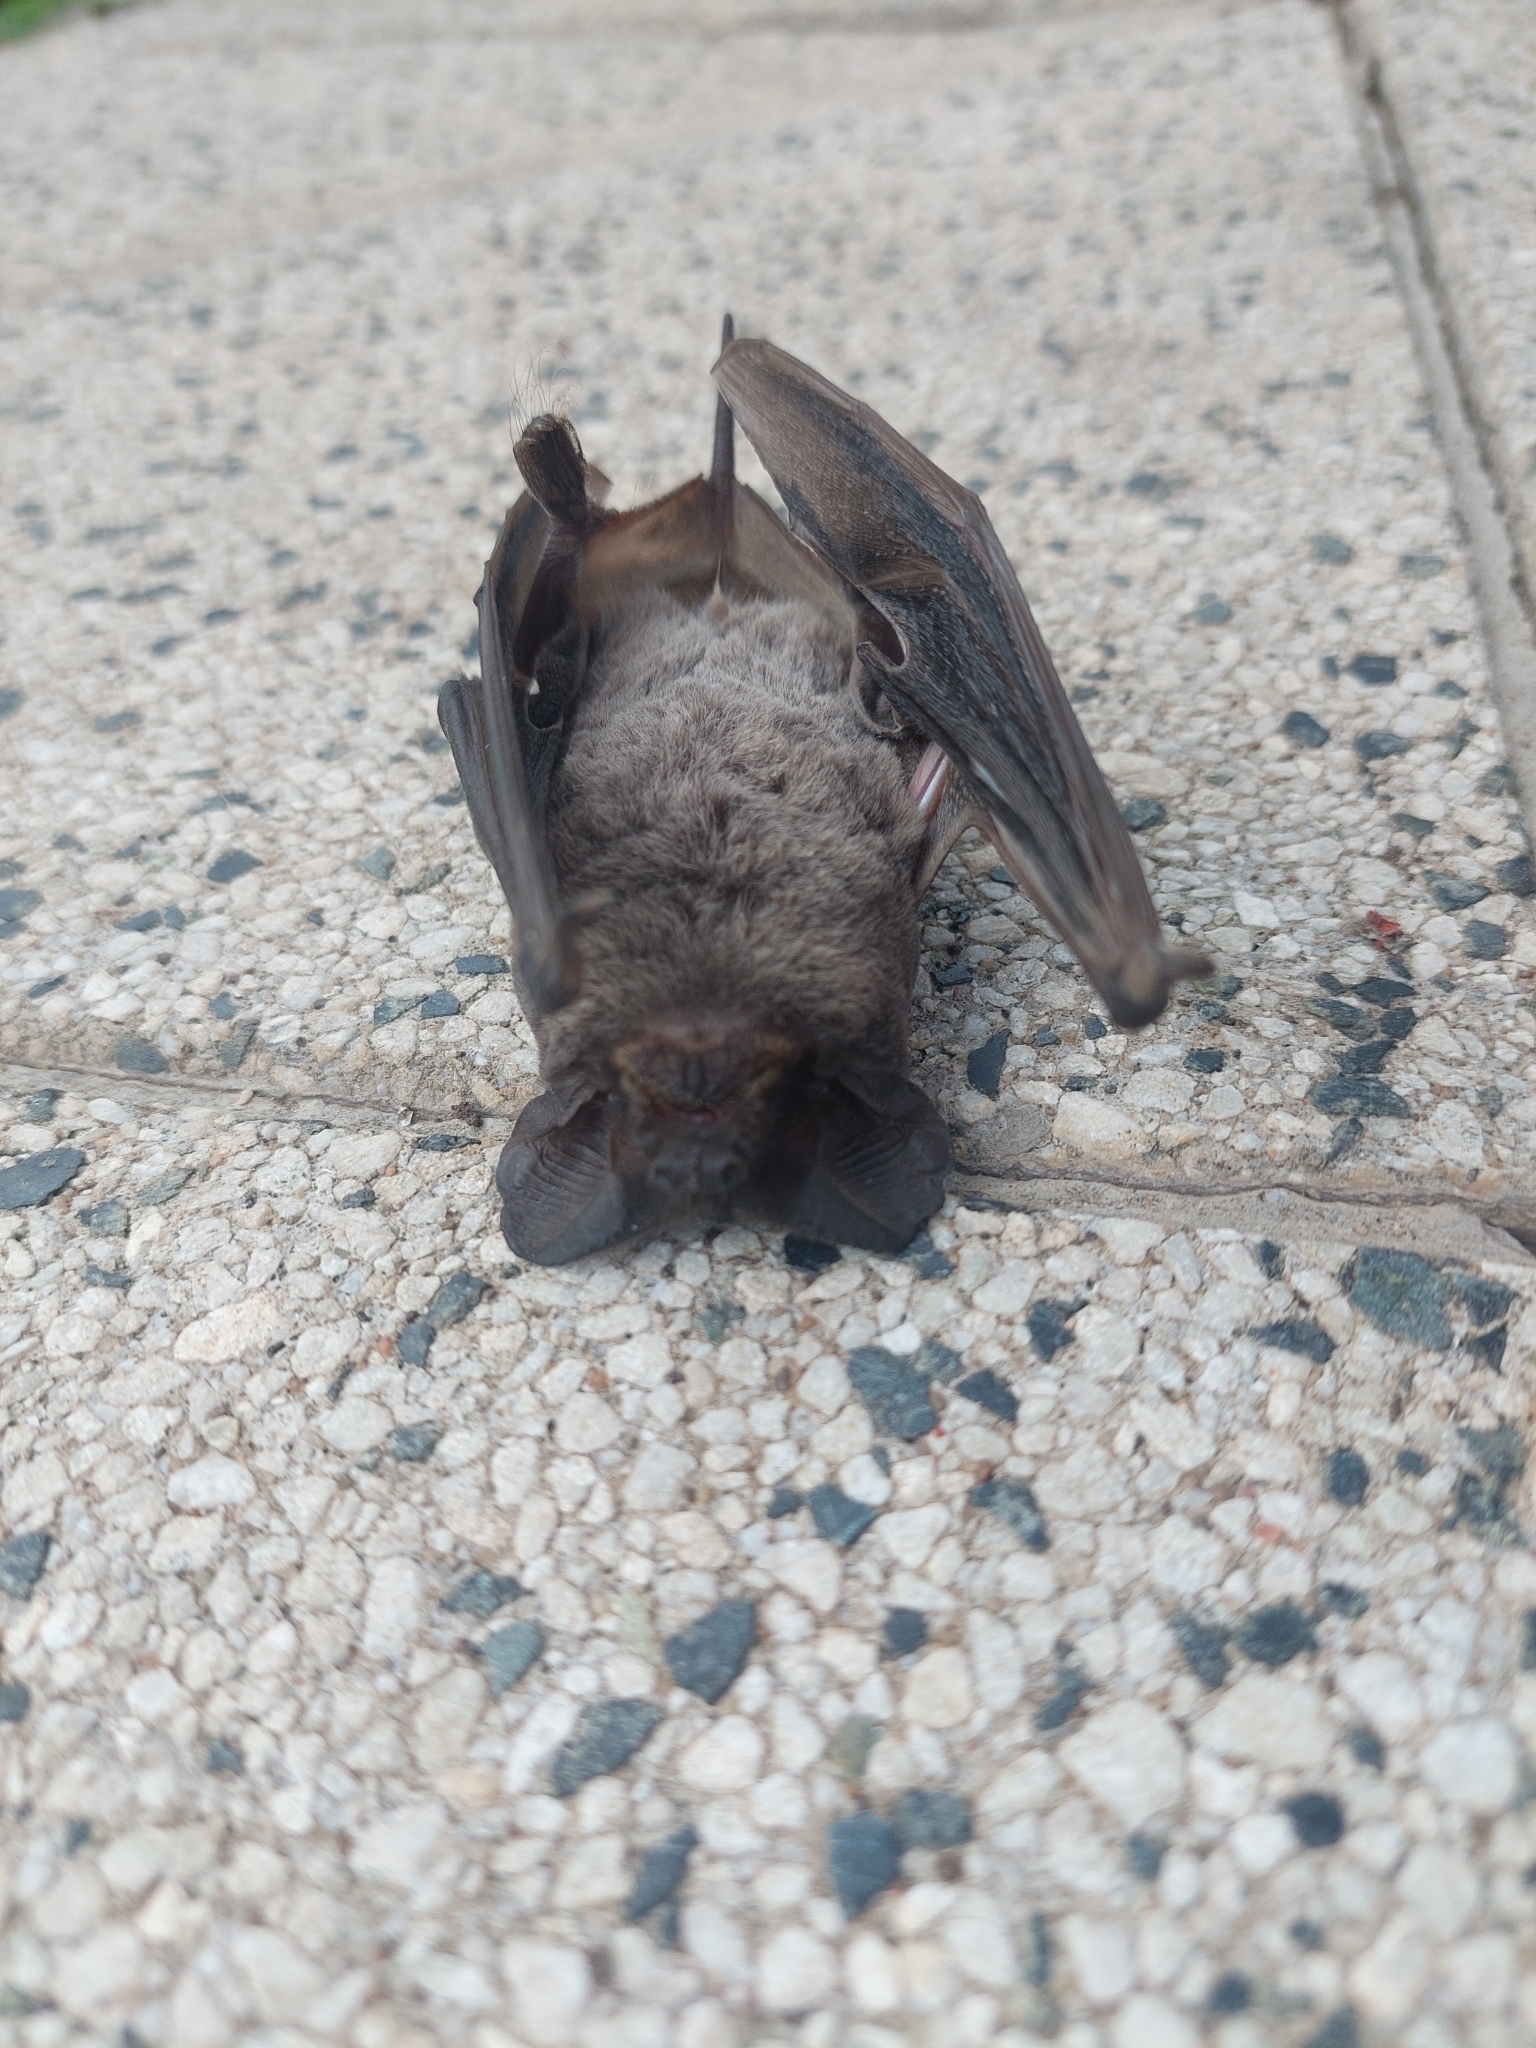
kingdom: Animalia
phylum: Chordata
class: Mammalia
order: Chiroptera
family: Molossidae
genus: Tadarida
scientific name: Tadarida brasiliensis
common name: Mexican free-tailed bat
